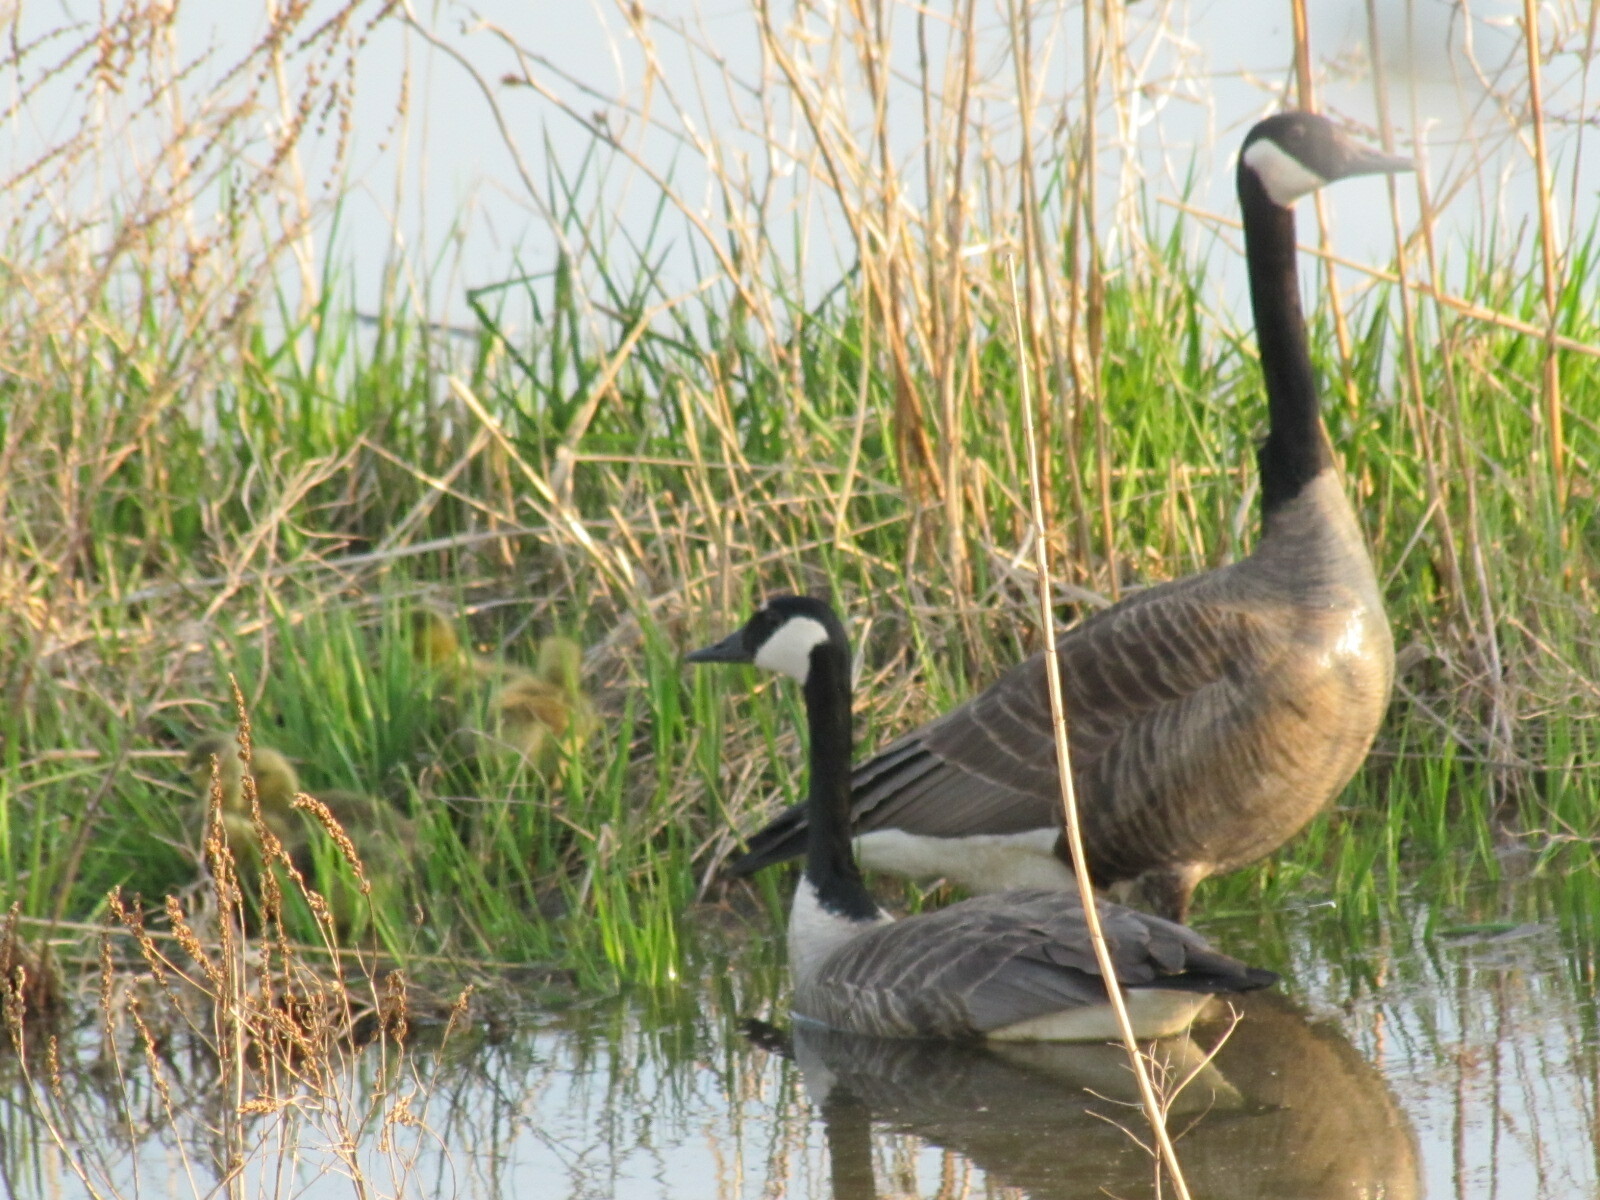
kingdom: Animalia
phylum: Chordata
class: Aves
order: Anseriformes
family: Anatidae
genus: Branta
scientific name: Branta canadensis
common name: Canada goose
